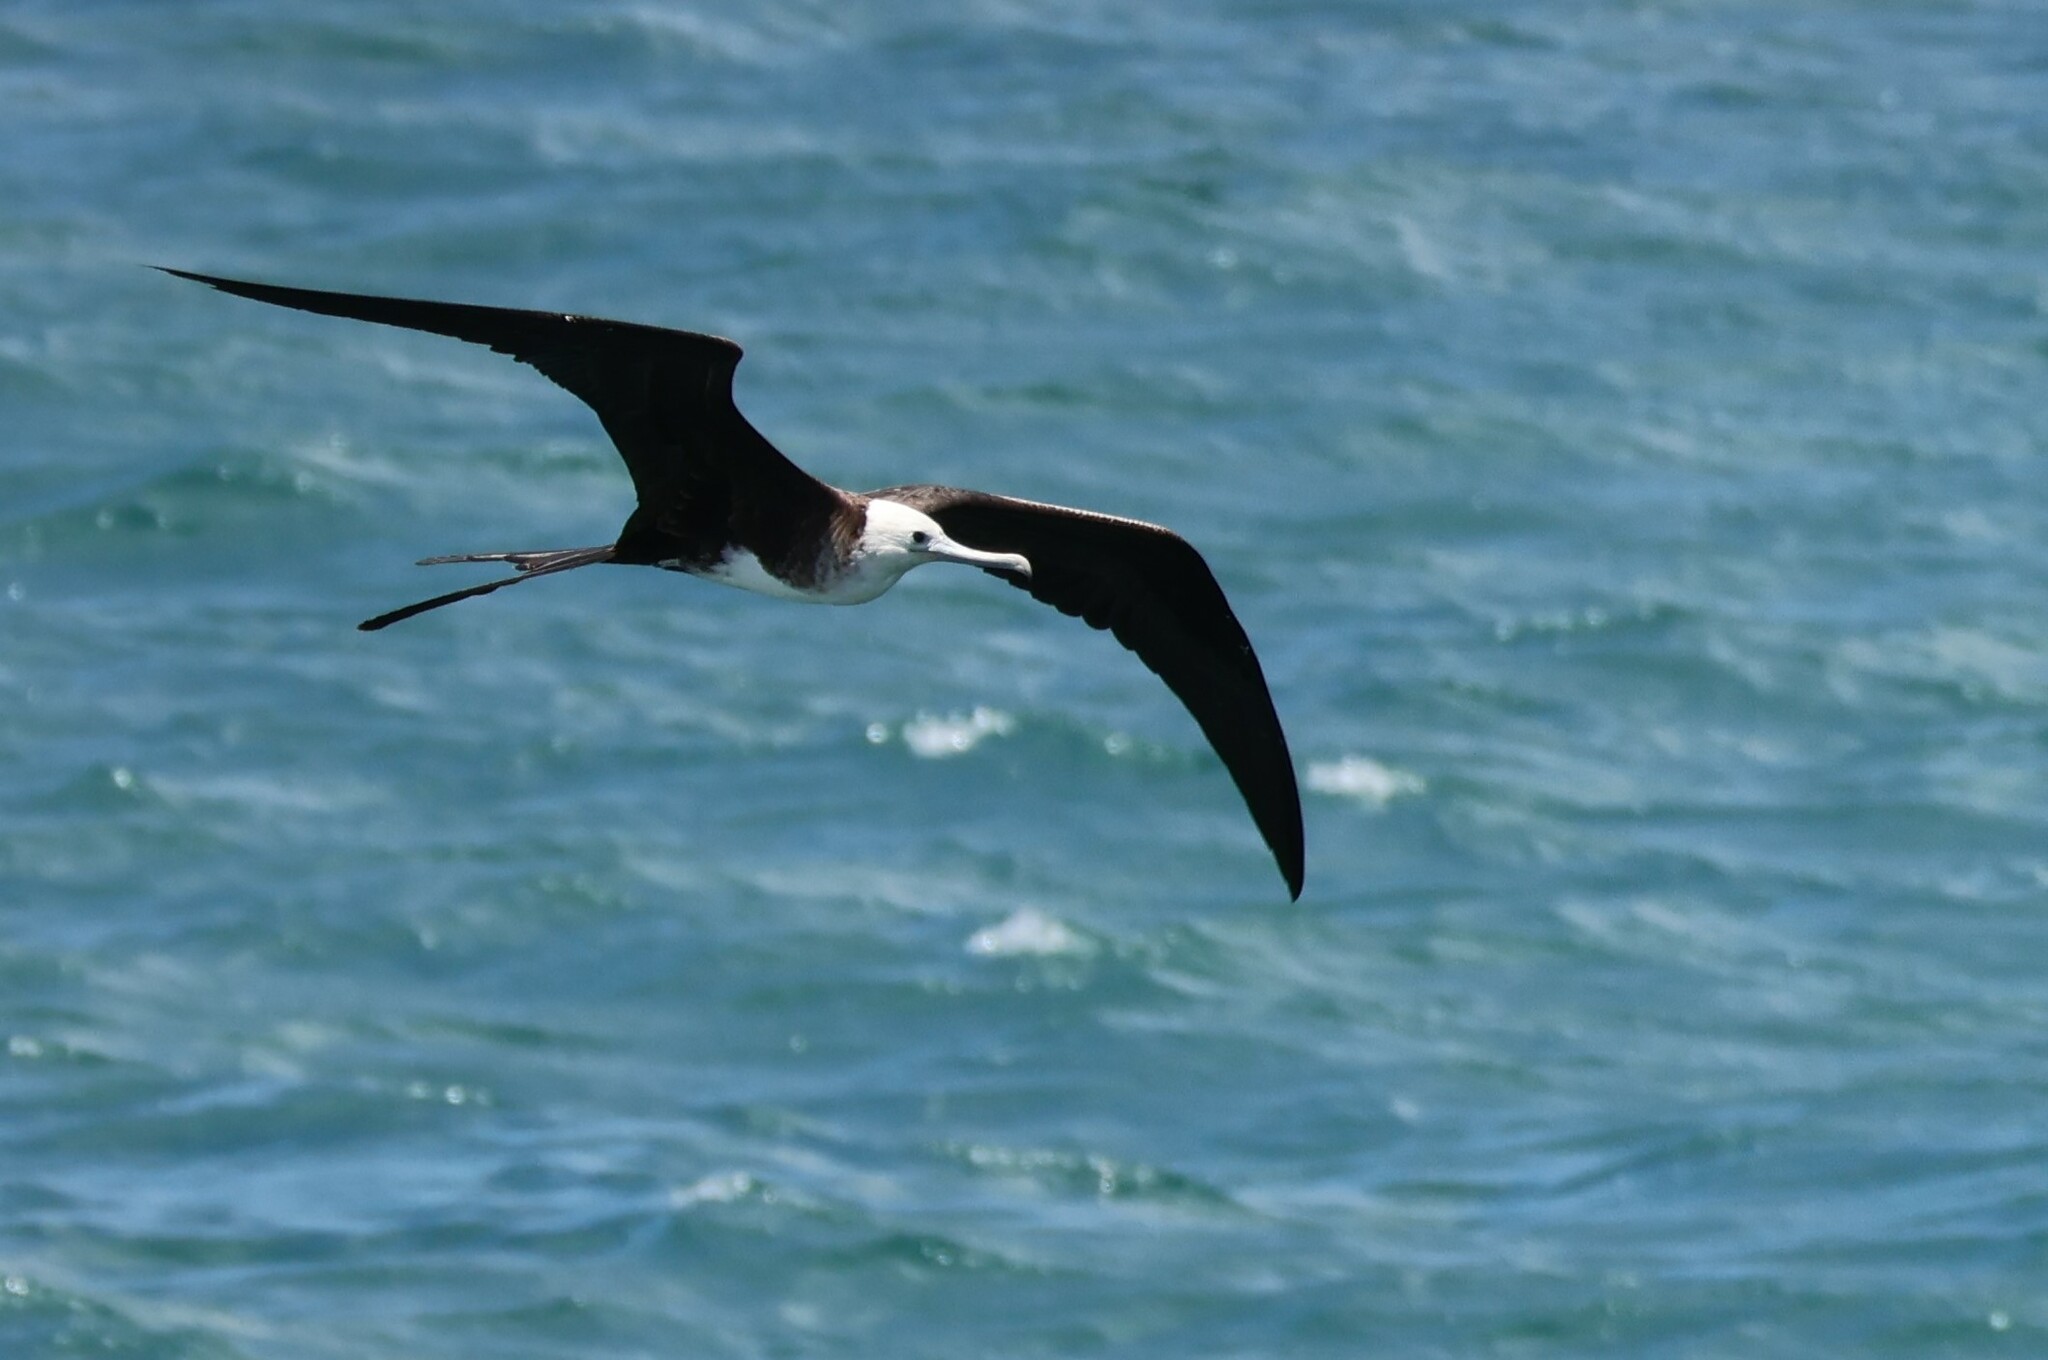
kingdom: Animalia
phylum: Chordata
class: Aves
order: Suliformes
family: Fregatidae
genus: Fregata
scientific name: Fregata magnificens
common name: Magnificent frigatebird
